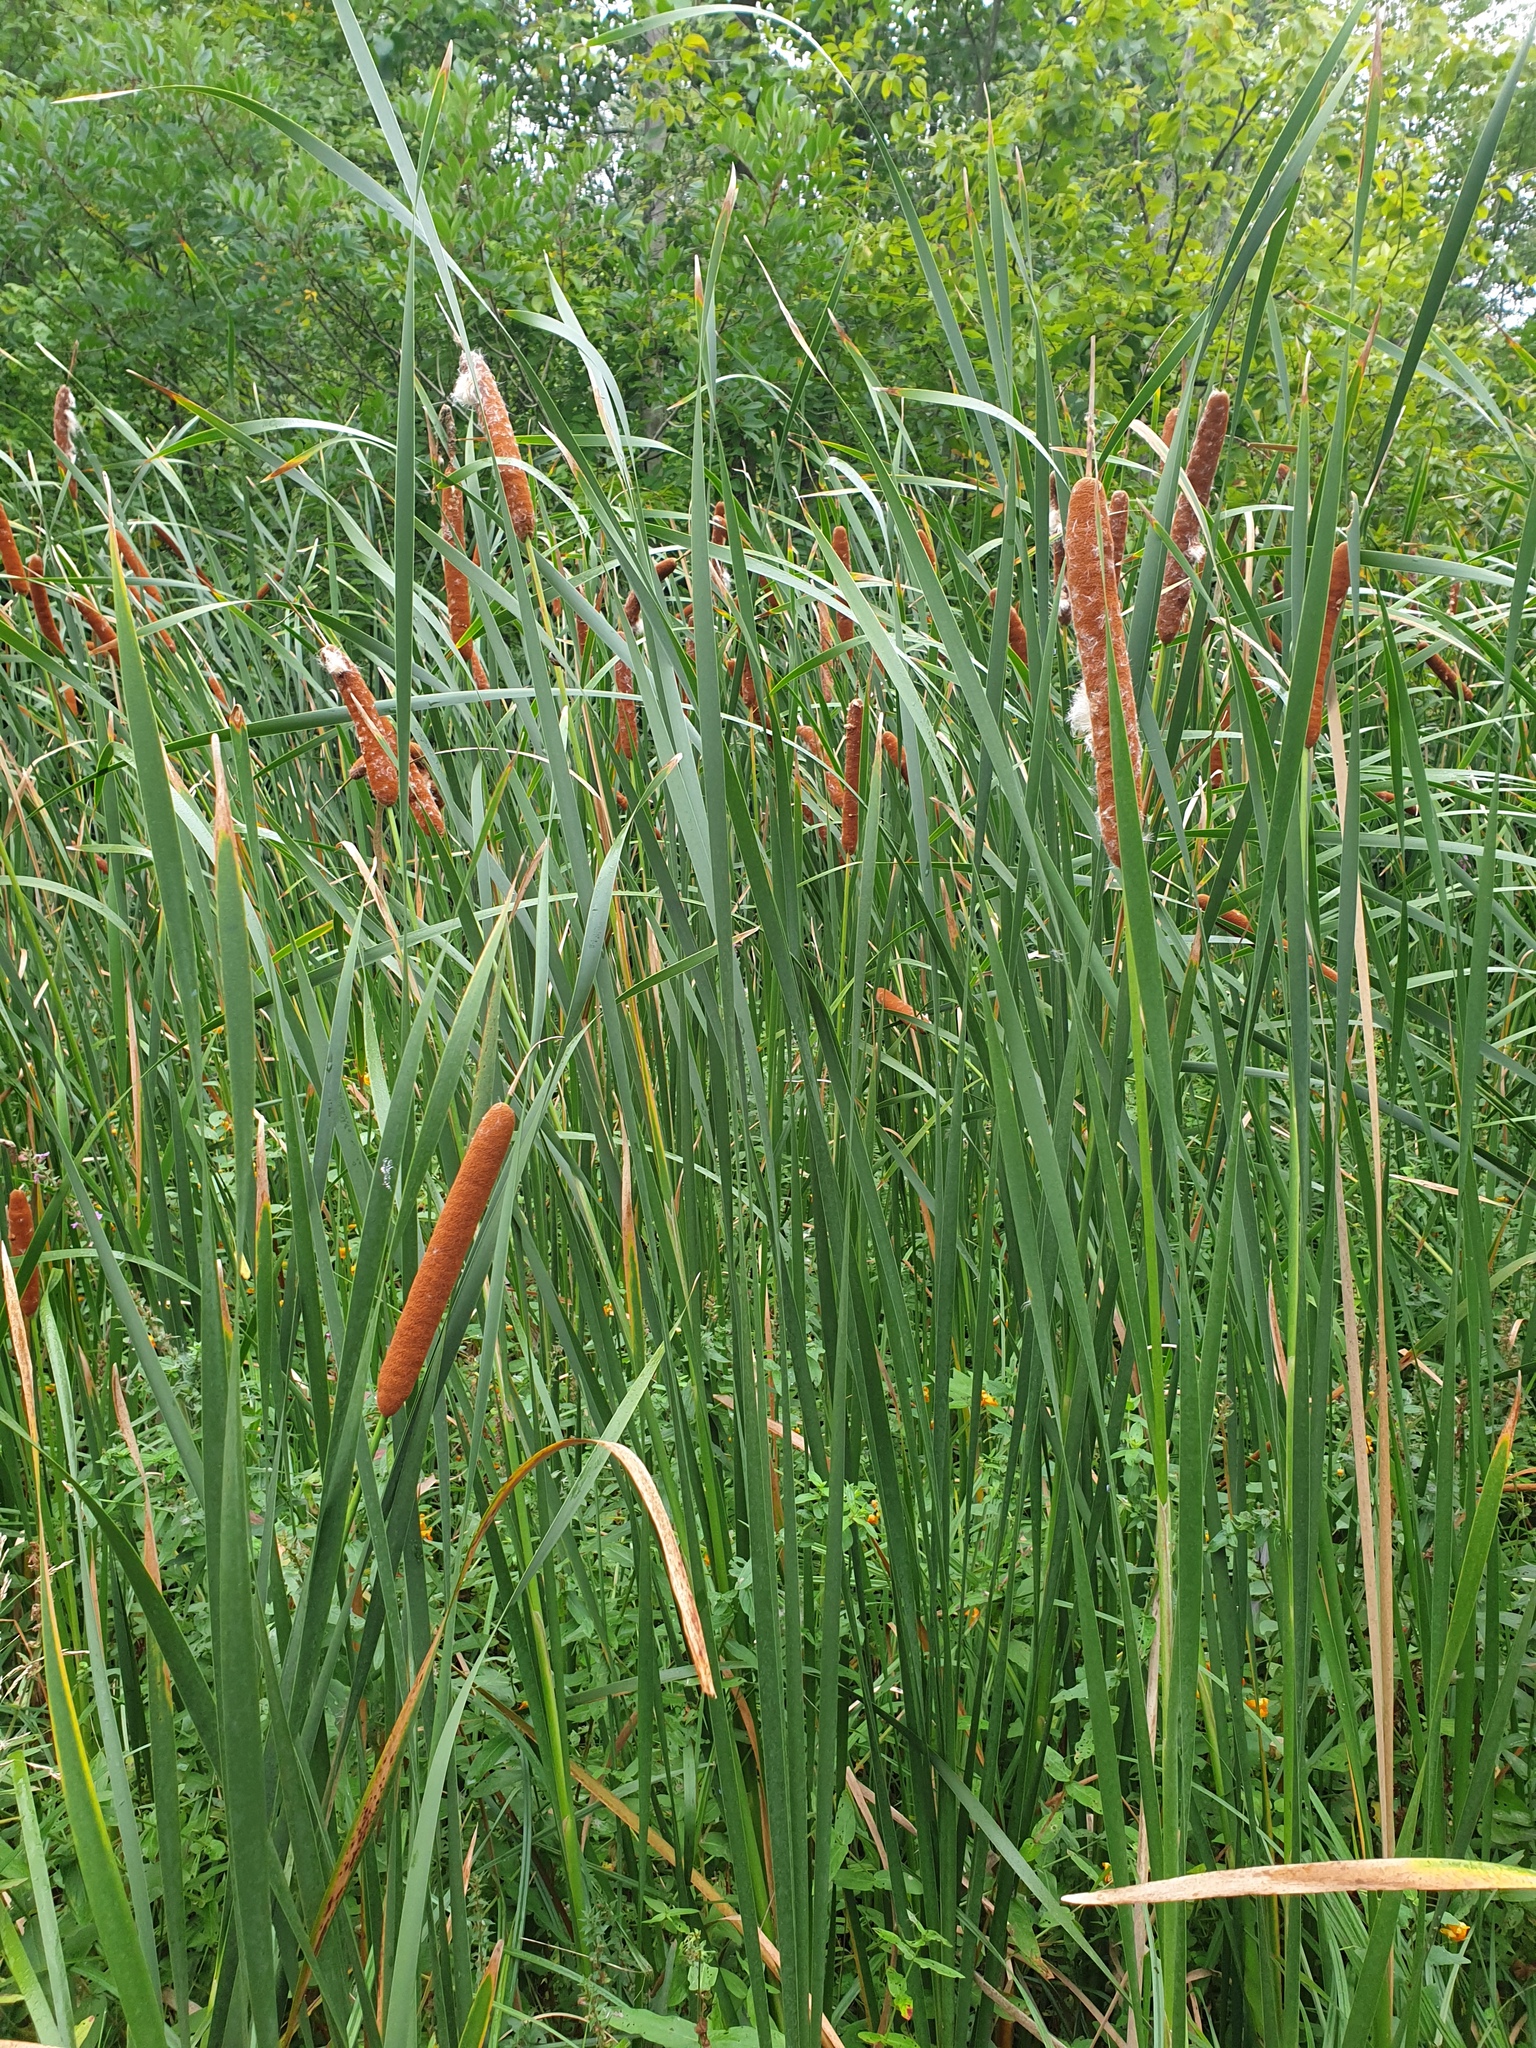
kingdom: Plantae
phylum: Tracheophyta
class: Liliopsida
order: Poales
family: Typhaceae
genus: Typha
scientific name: Typha glauca
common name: Blue cattail
